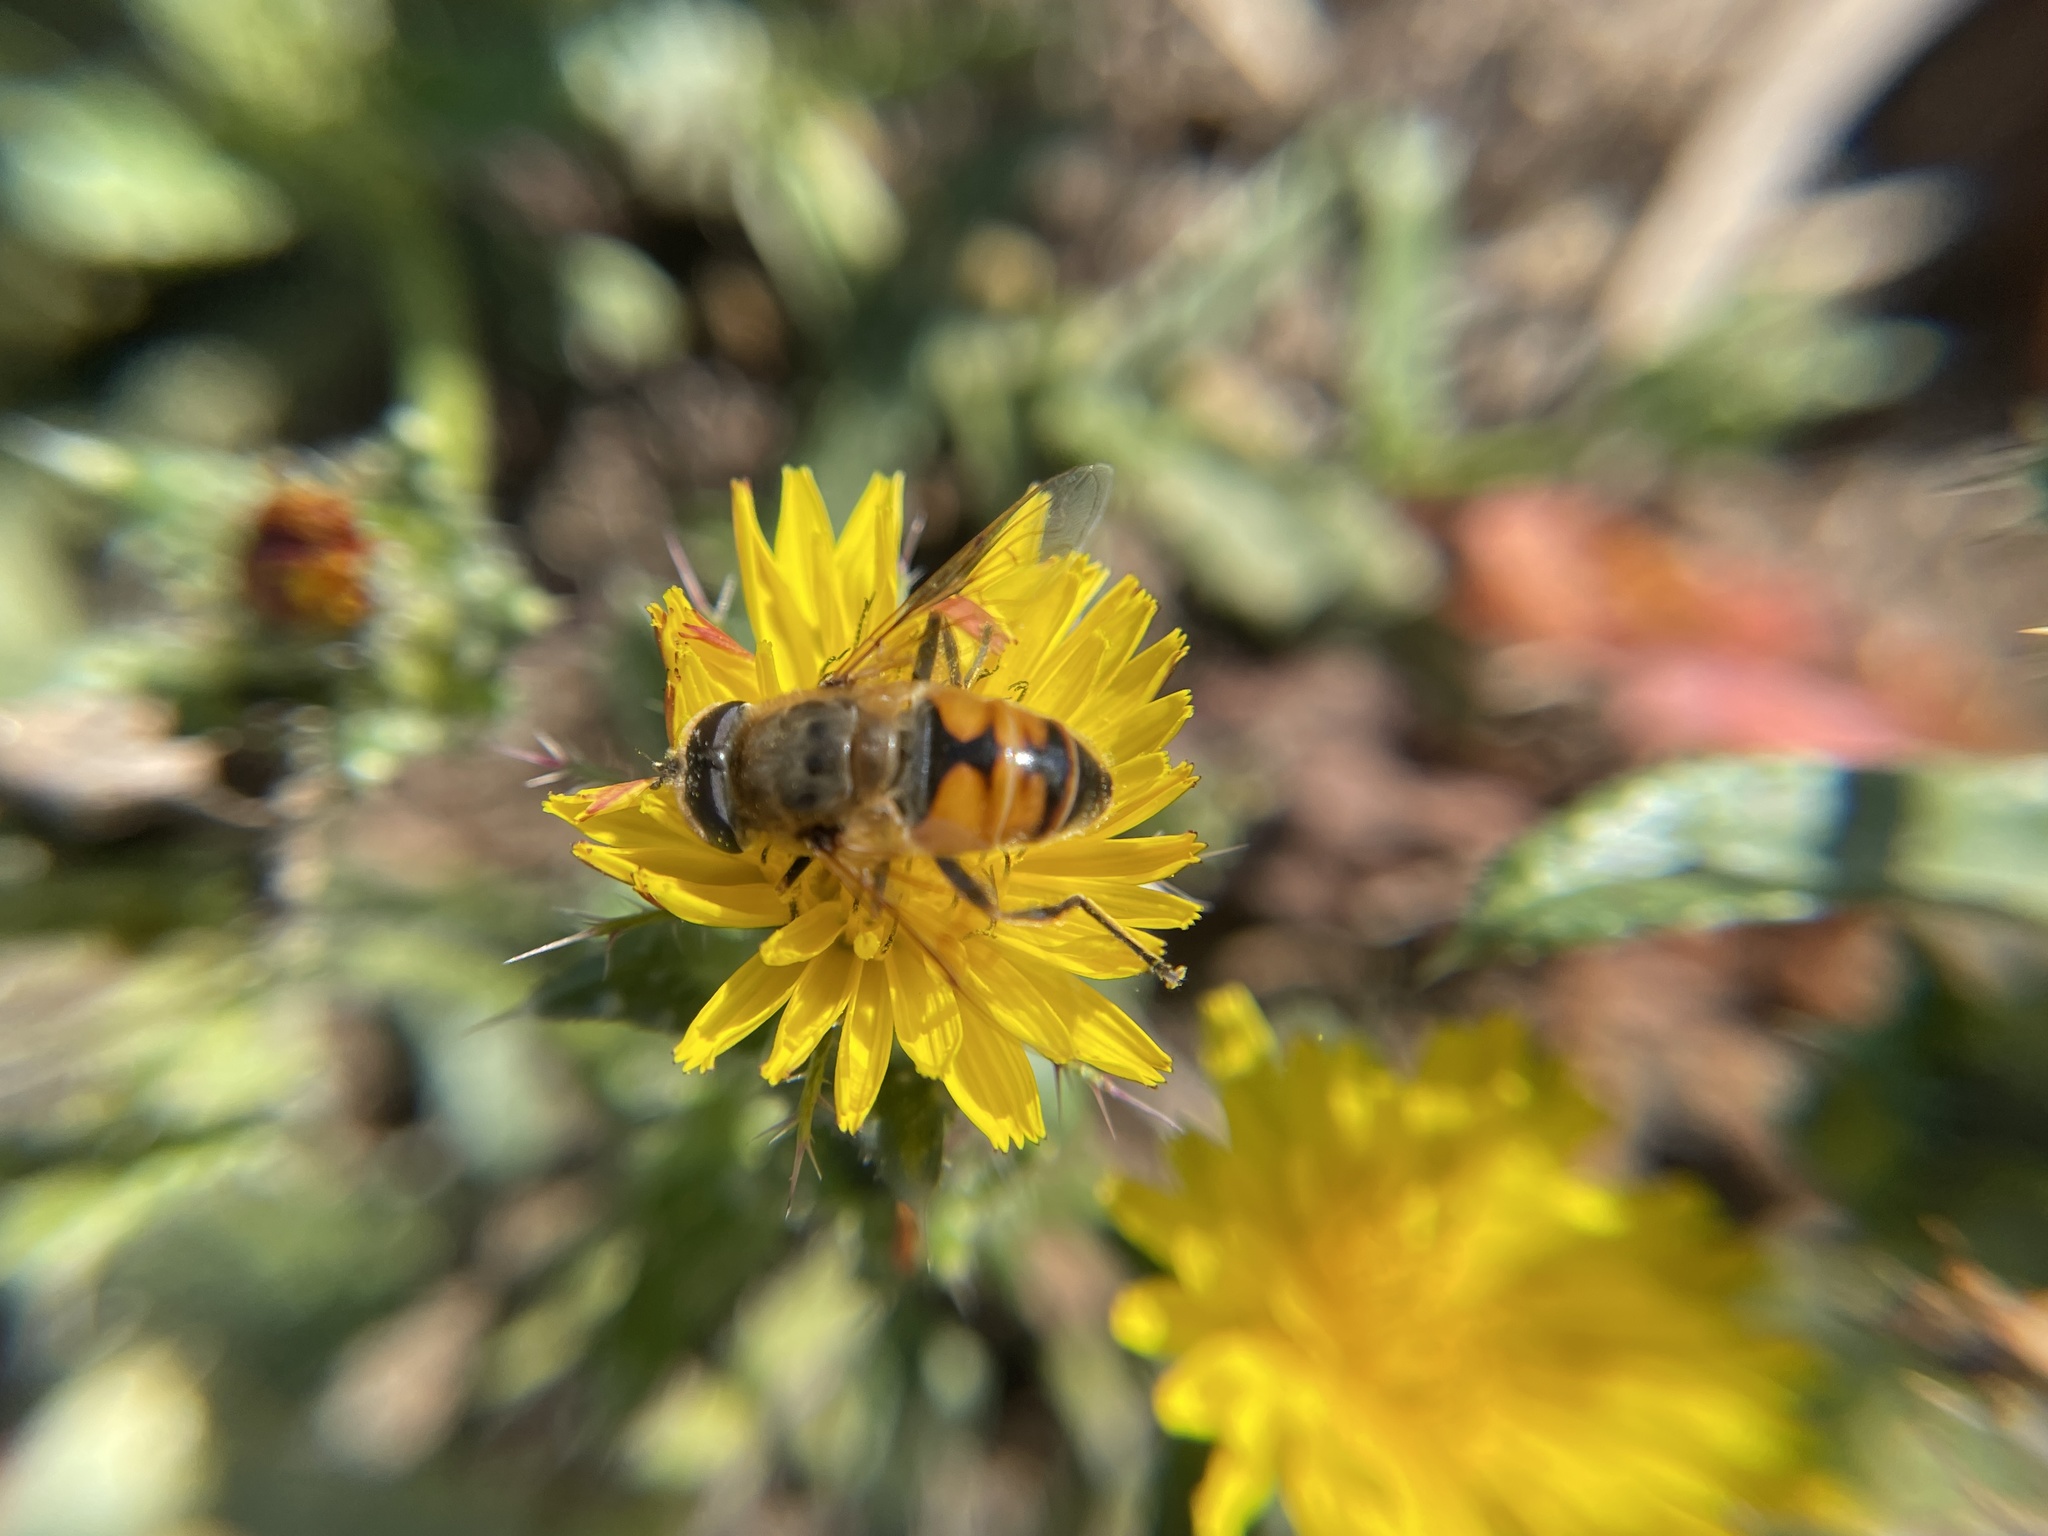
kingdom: Animalia
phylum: Arthropoda
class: Insecta
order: Diptera
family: Syrphidae
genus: Eristalis
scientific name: Eristalis tenax
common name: Drone fly
